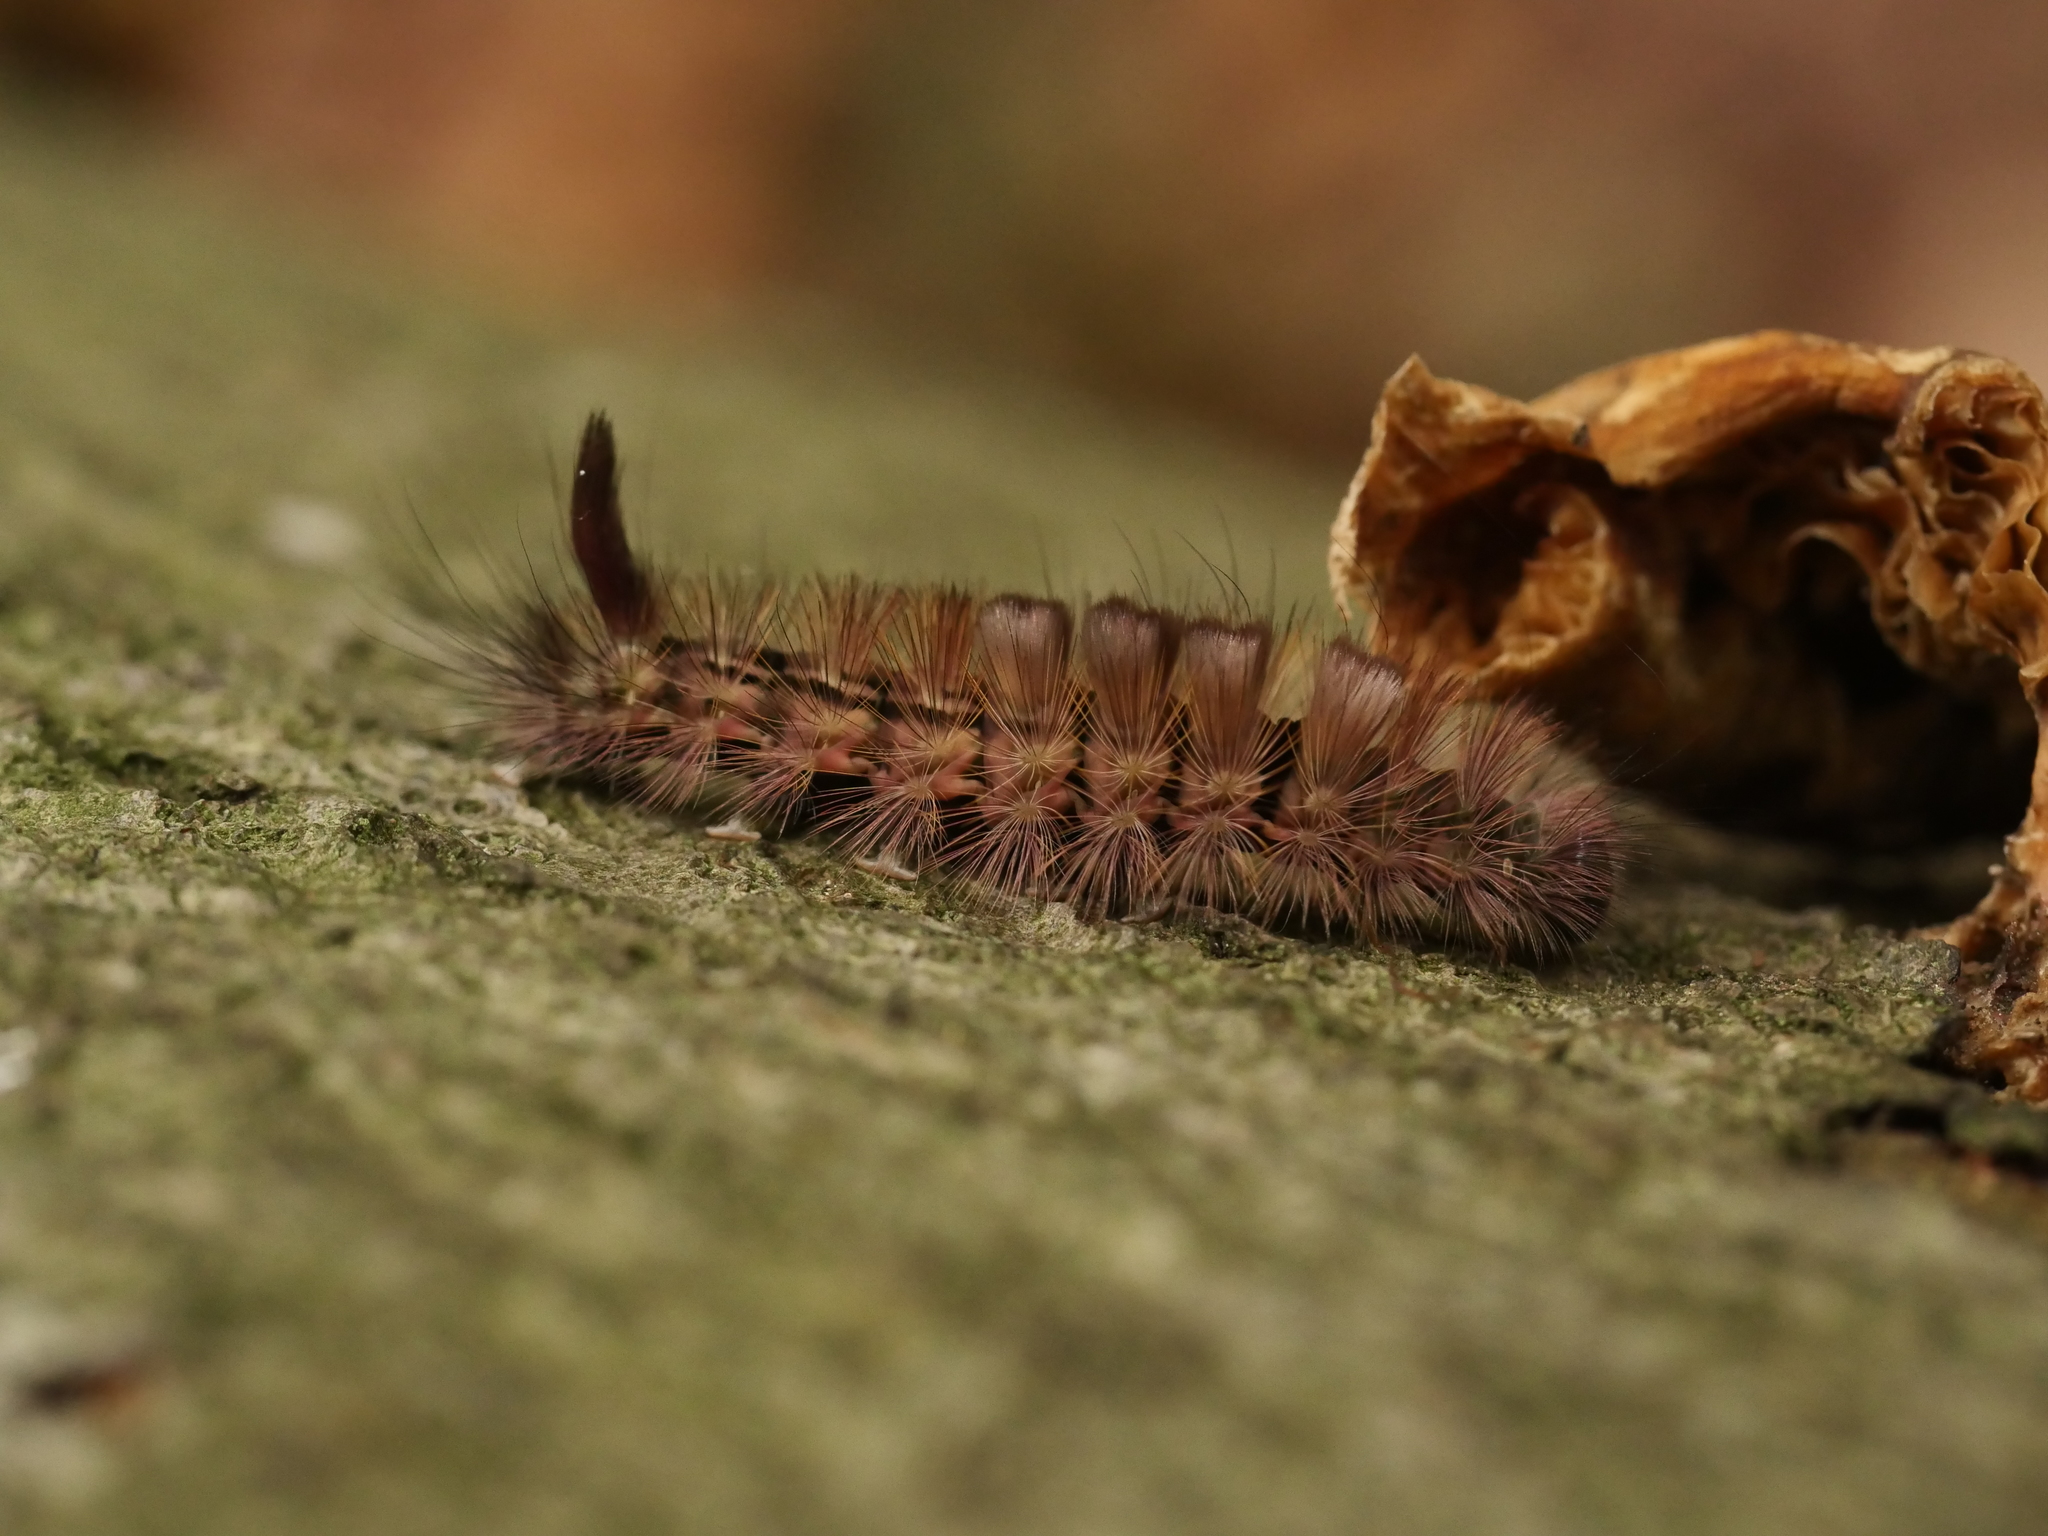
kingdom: Animalia
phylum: Arthropoda
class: Insecta
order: Lepidoptera
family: Erebidae
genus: Calliteara
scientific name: Calliteara pudibunda
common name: Pale tussock
